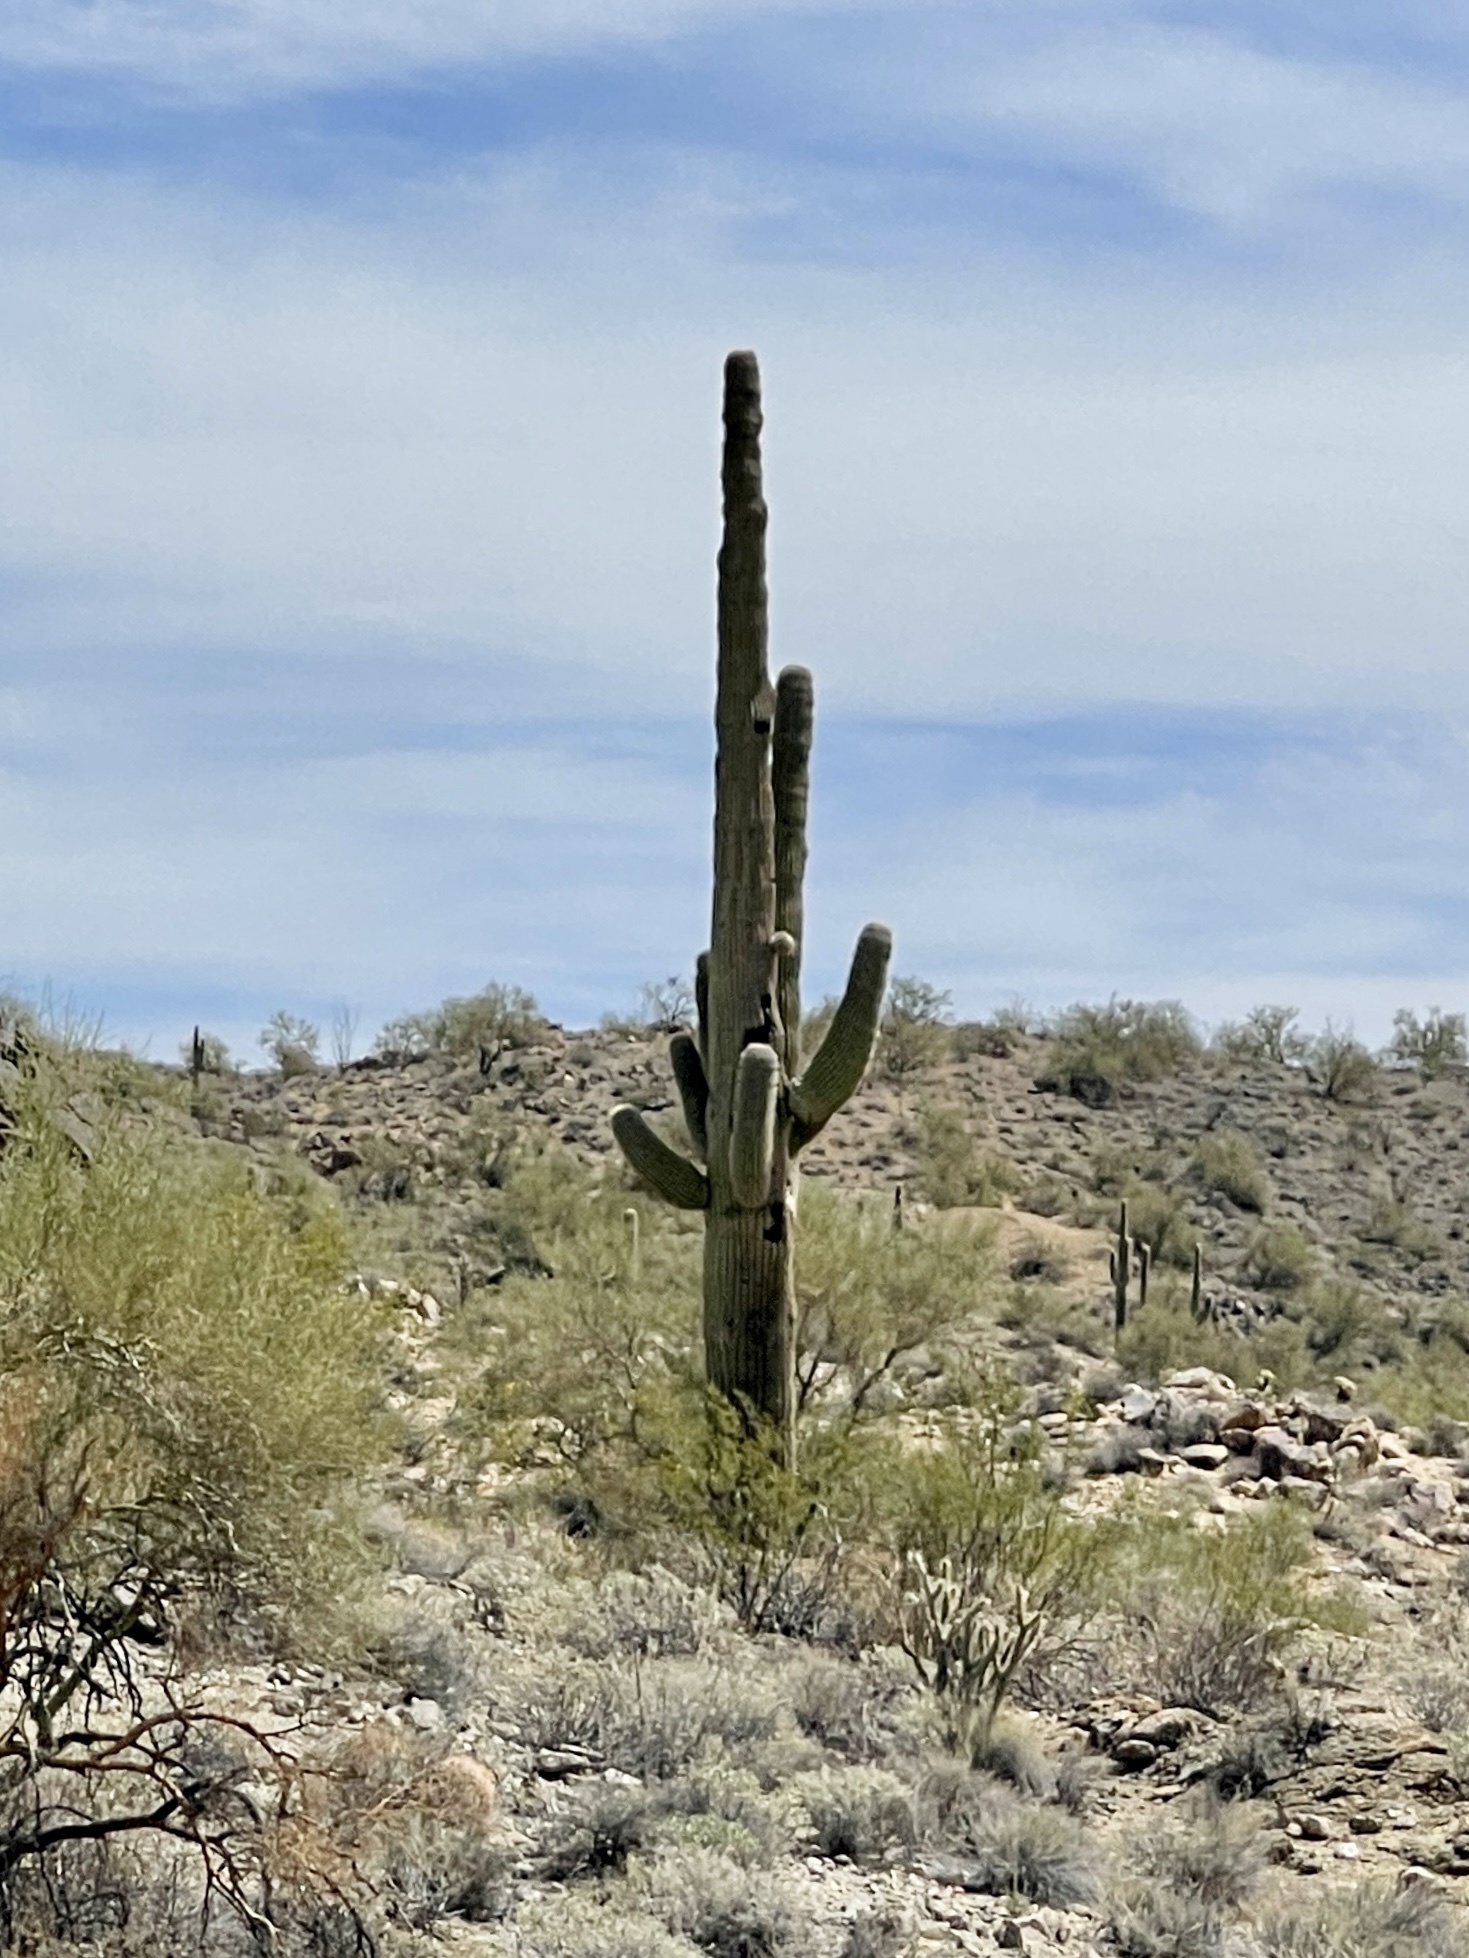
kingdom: Plantae
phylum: Tracheophyta
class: Magnoliopsida
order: Caryophyllales
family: Cactaceae
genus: Carnegiea
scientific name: Carnegiea gigantea
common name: Saguaro
